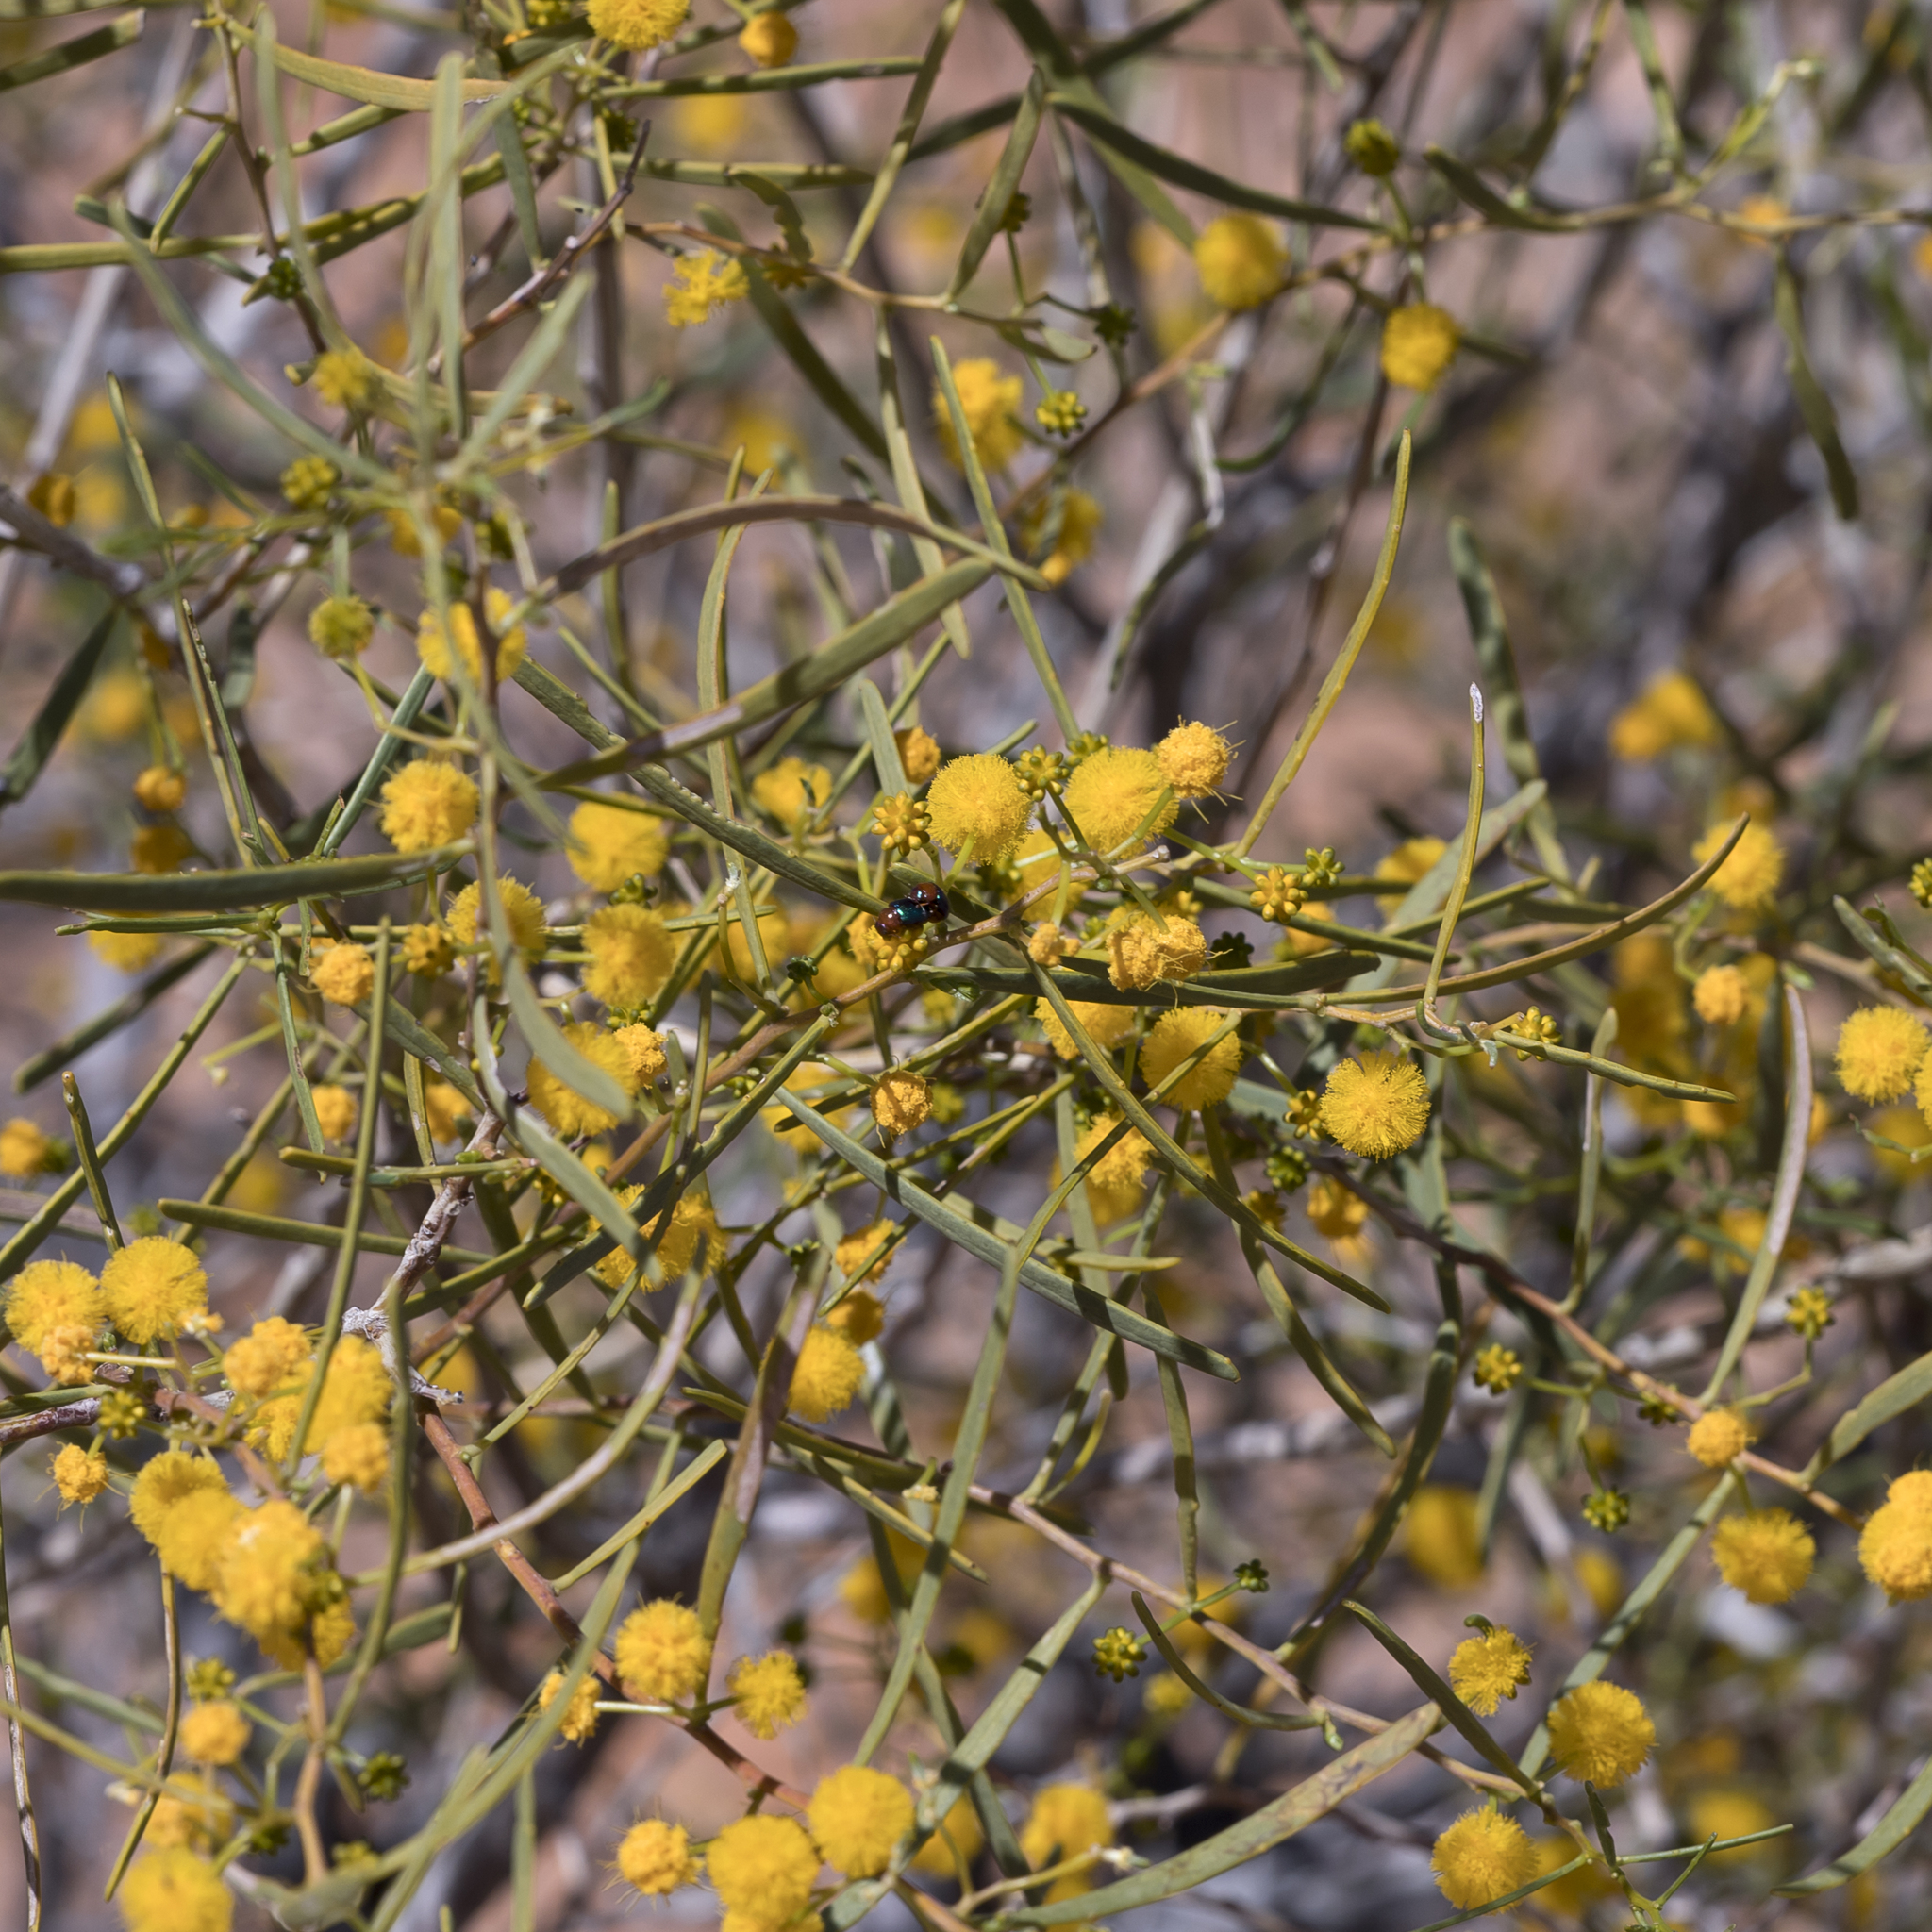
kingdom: Plantae
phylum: Tracheophyta
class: Magnoliopsida
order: Fabales
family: Fabaceae
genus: Acacia
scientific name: Acacia ligulata
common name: Dune wattle
